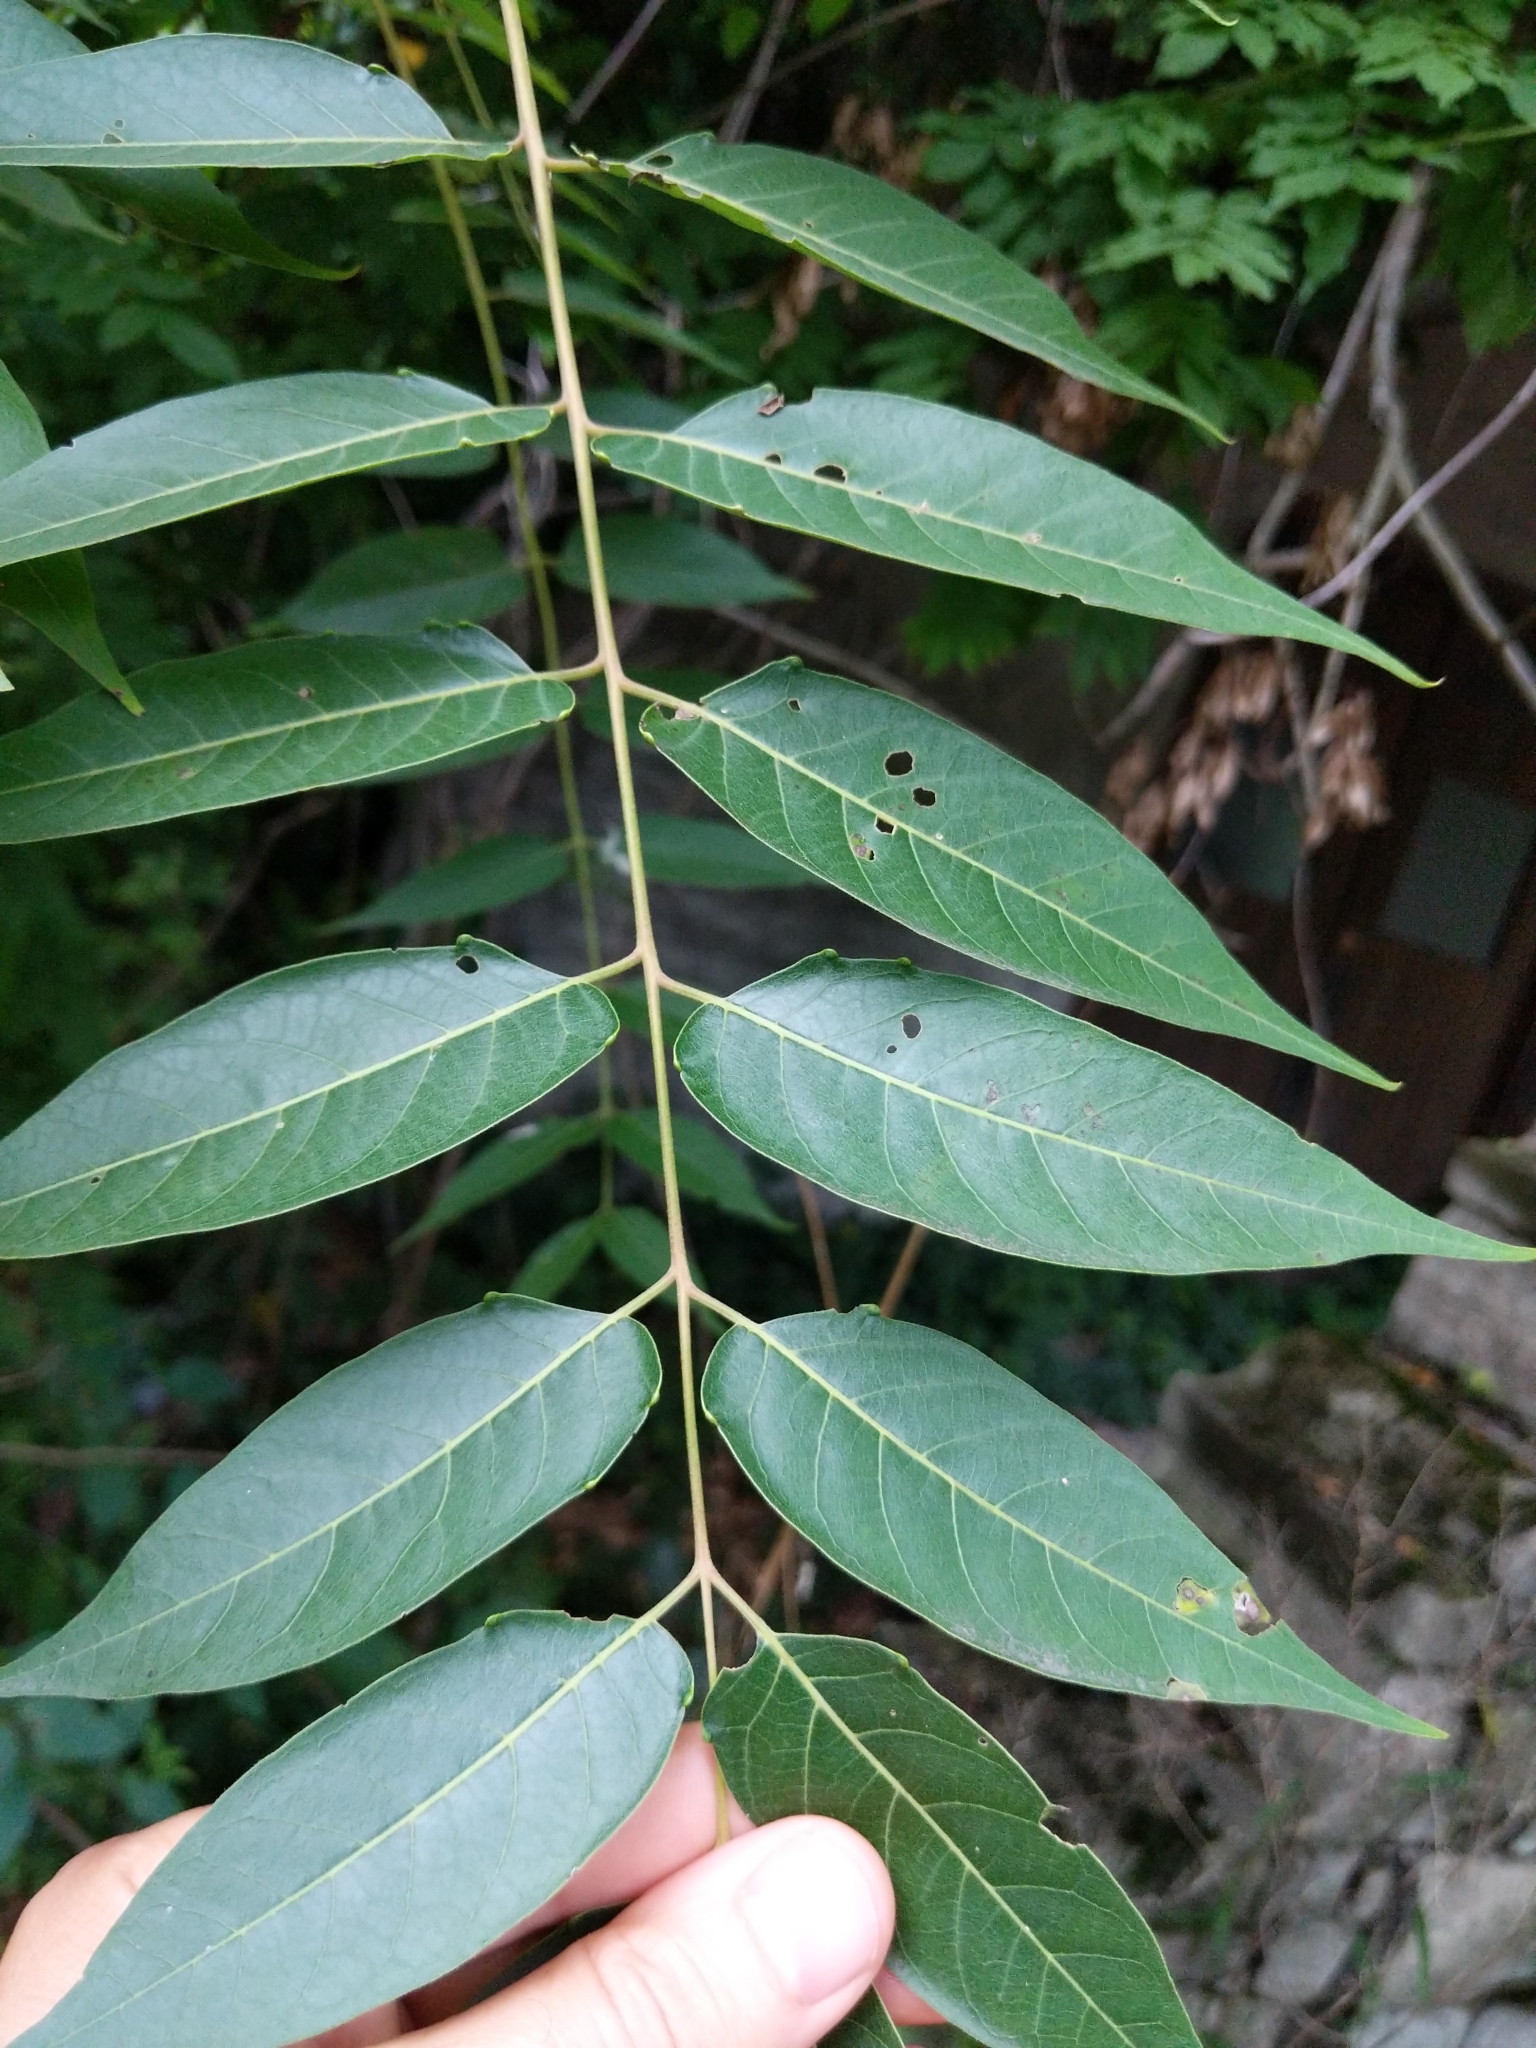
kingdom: Plantae
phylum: Tracheophyta
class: Magnoliopsida
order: Sapindales
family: Simaroubaceae
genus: Ailanthus
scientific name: Ailanthus altissima
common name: Tree-of-heaven
